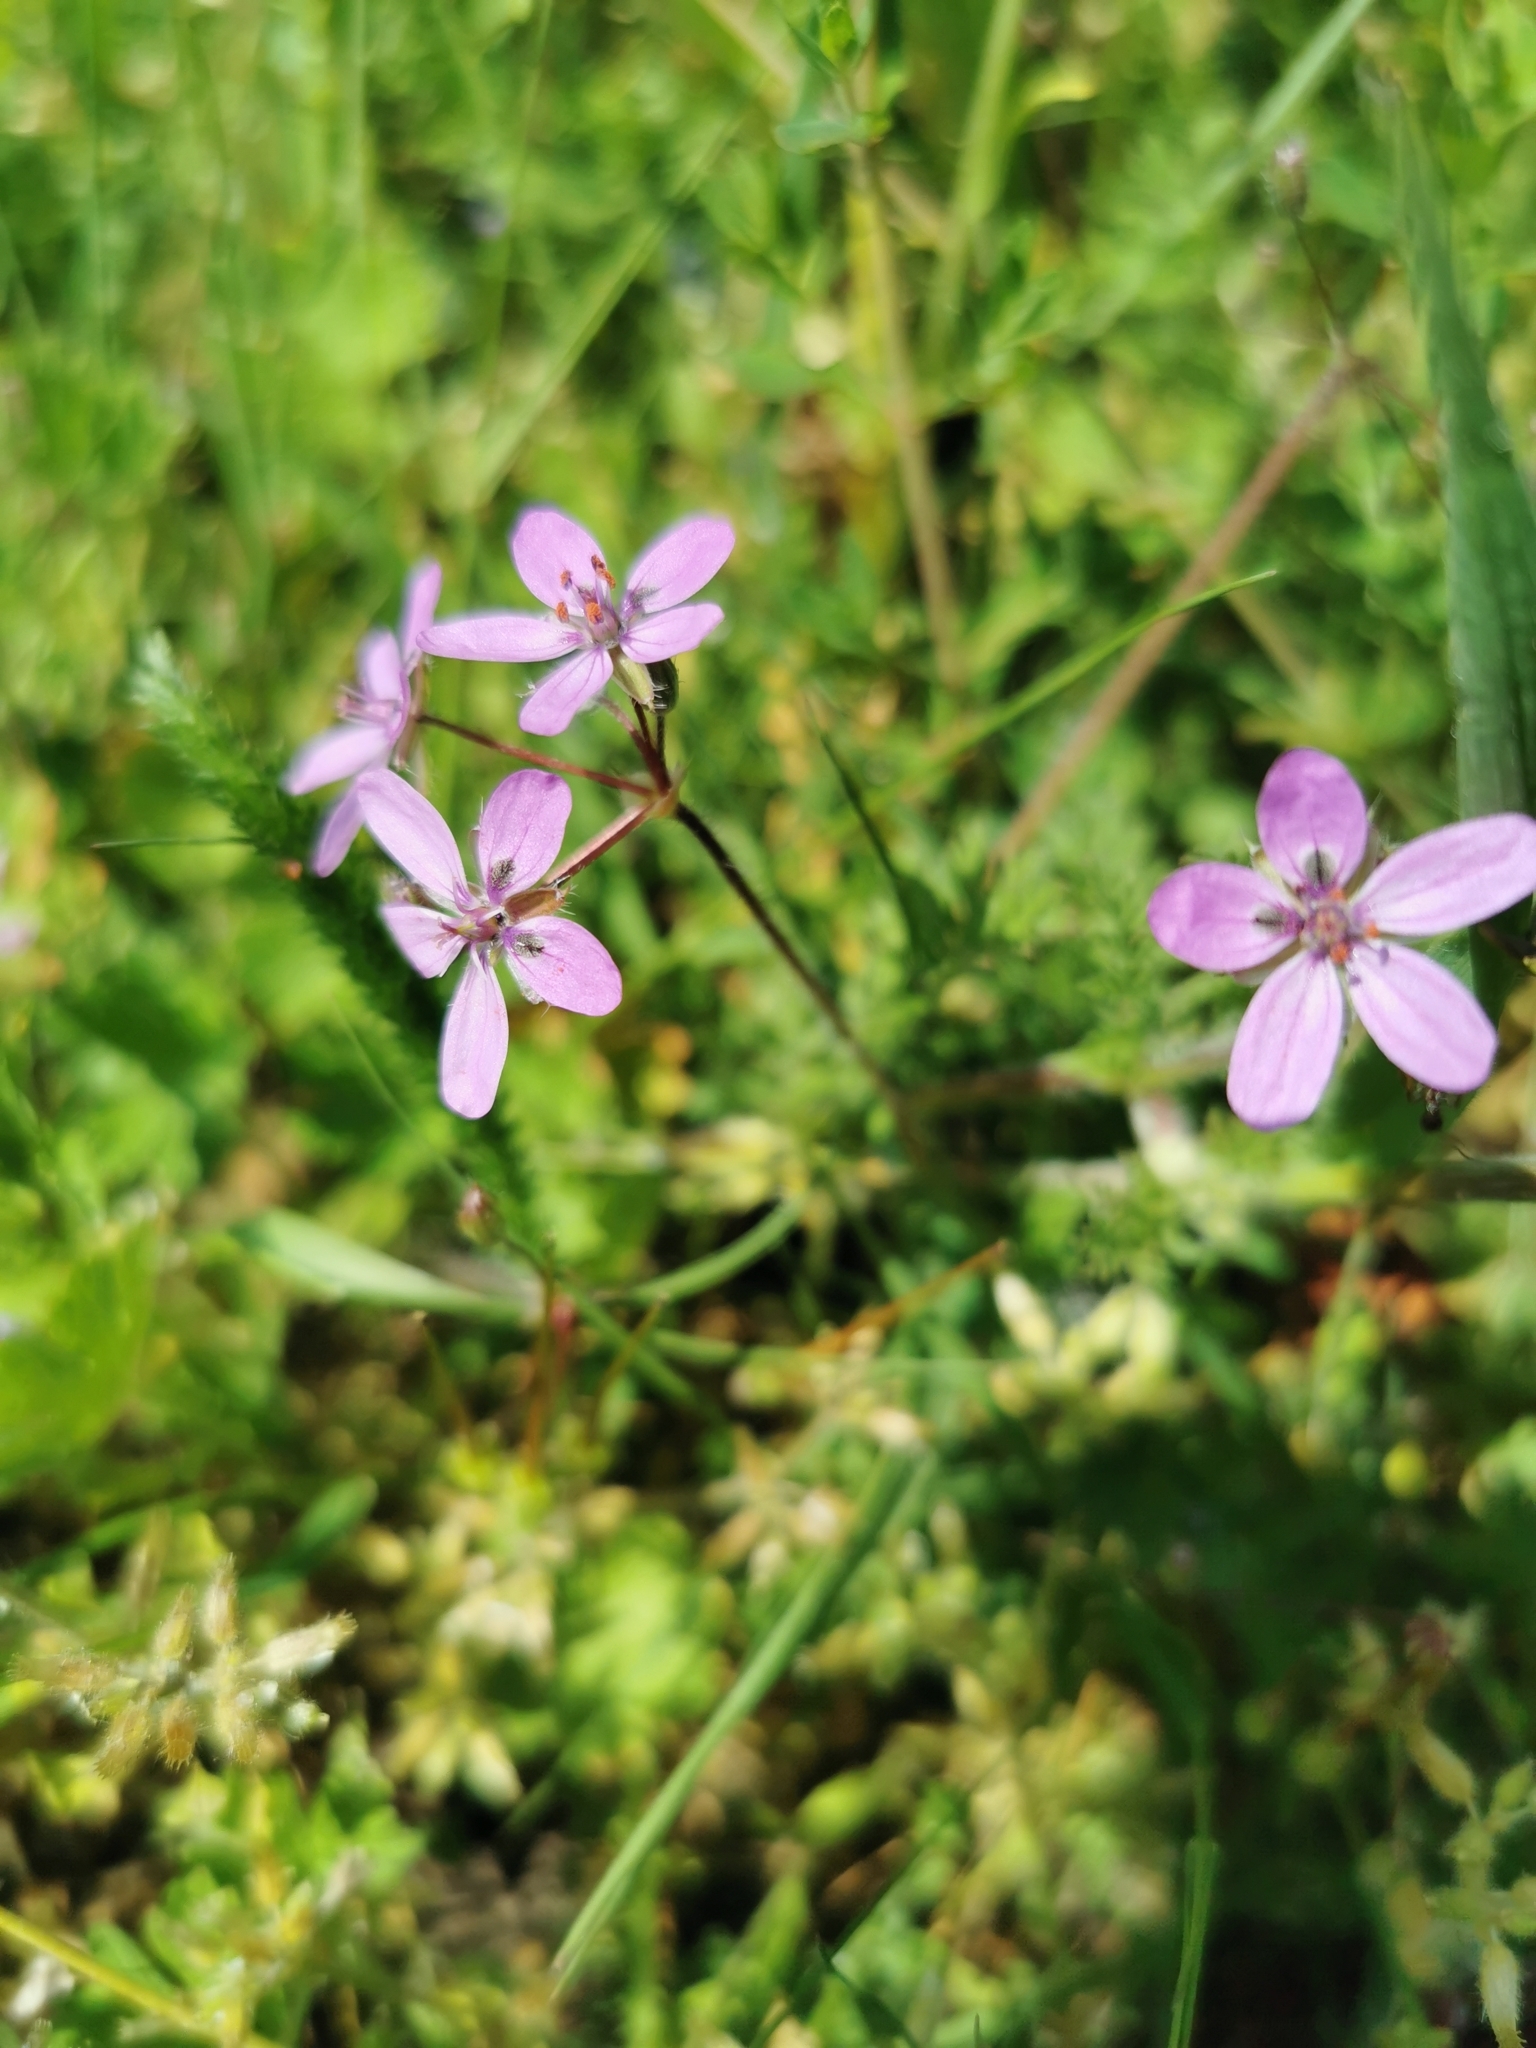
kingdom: Plantae
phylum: Tracheophyta
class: Magnoliopsida
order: Geraniales
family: Geraniaceae
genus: Erodium
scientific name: Erodium cicutarium
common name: Common stork's-bill
